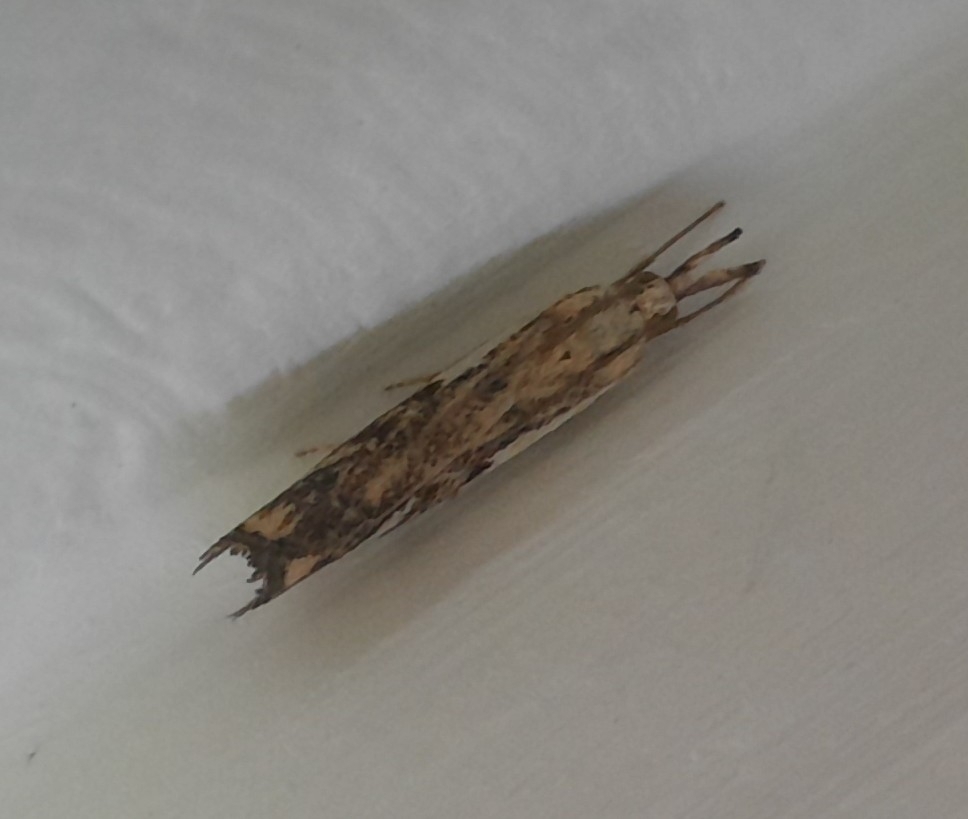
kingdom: Animalia
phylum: Arthropoda
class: Insecta
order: Lepidoptera
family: Crambidae
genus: Platytes
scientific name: Platytes alpinella
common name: Hook-tipped grass-veneer
